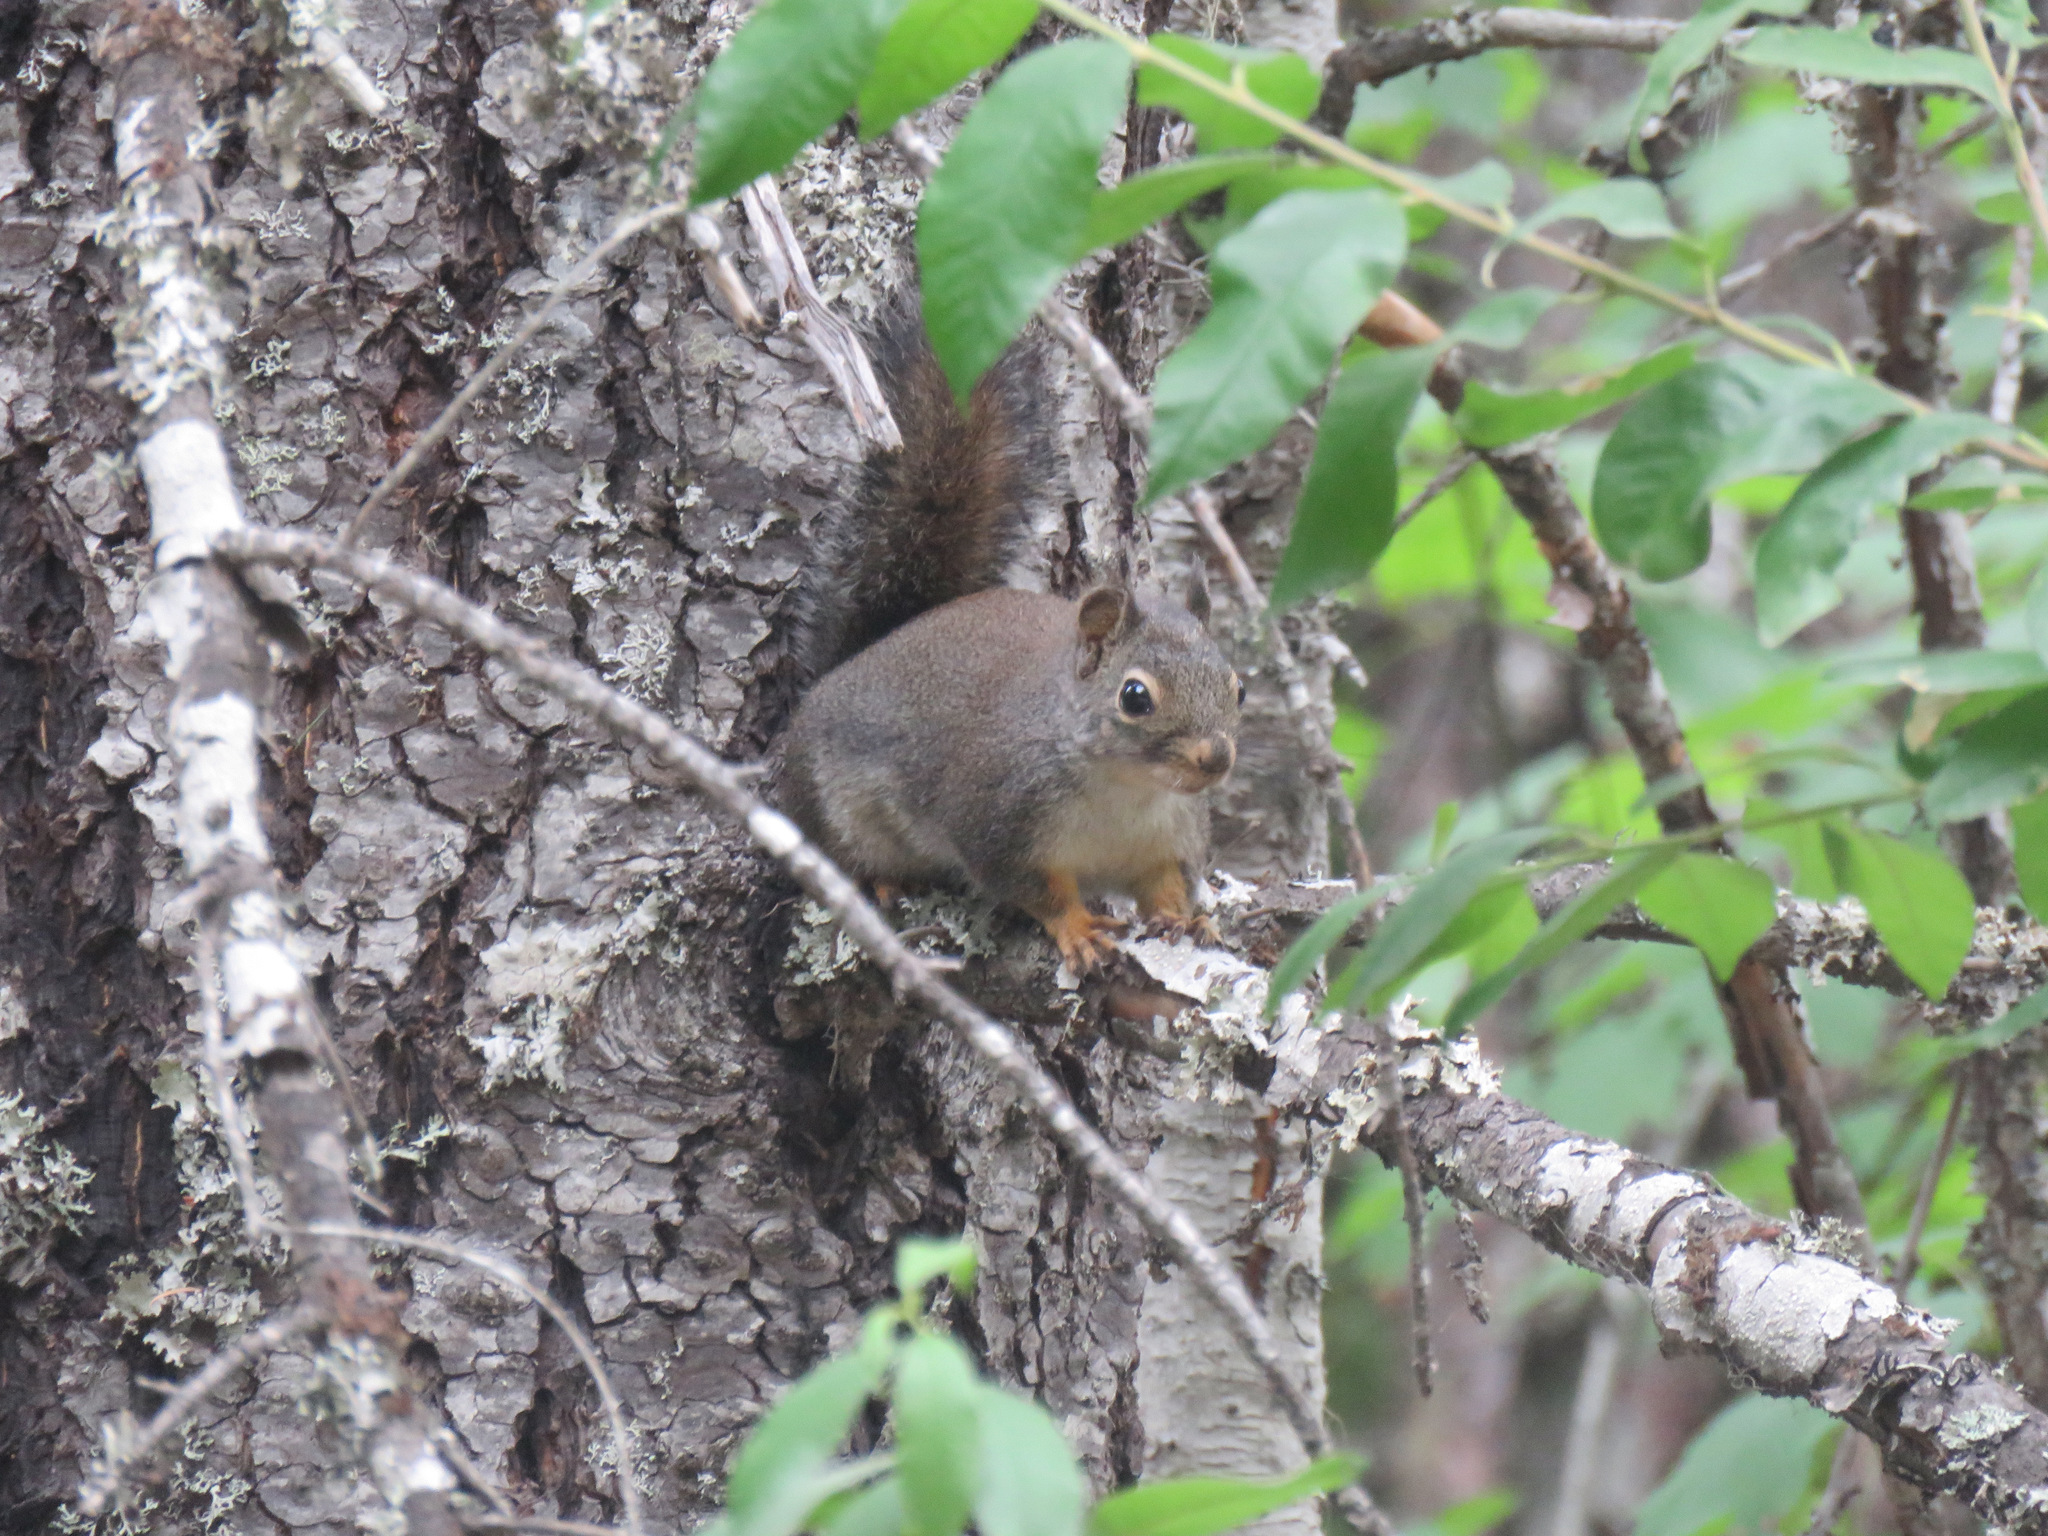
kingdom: Animalia
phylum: Chordata
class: Mammalia
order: Rodentia
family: Sciuridae
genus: Tamiasciurus
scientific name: Tamiasciurus douglasii
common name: Douglas's squirrel
